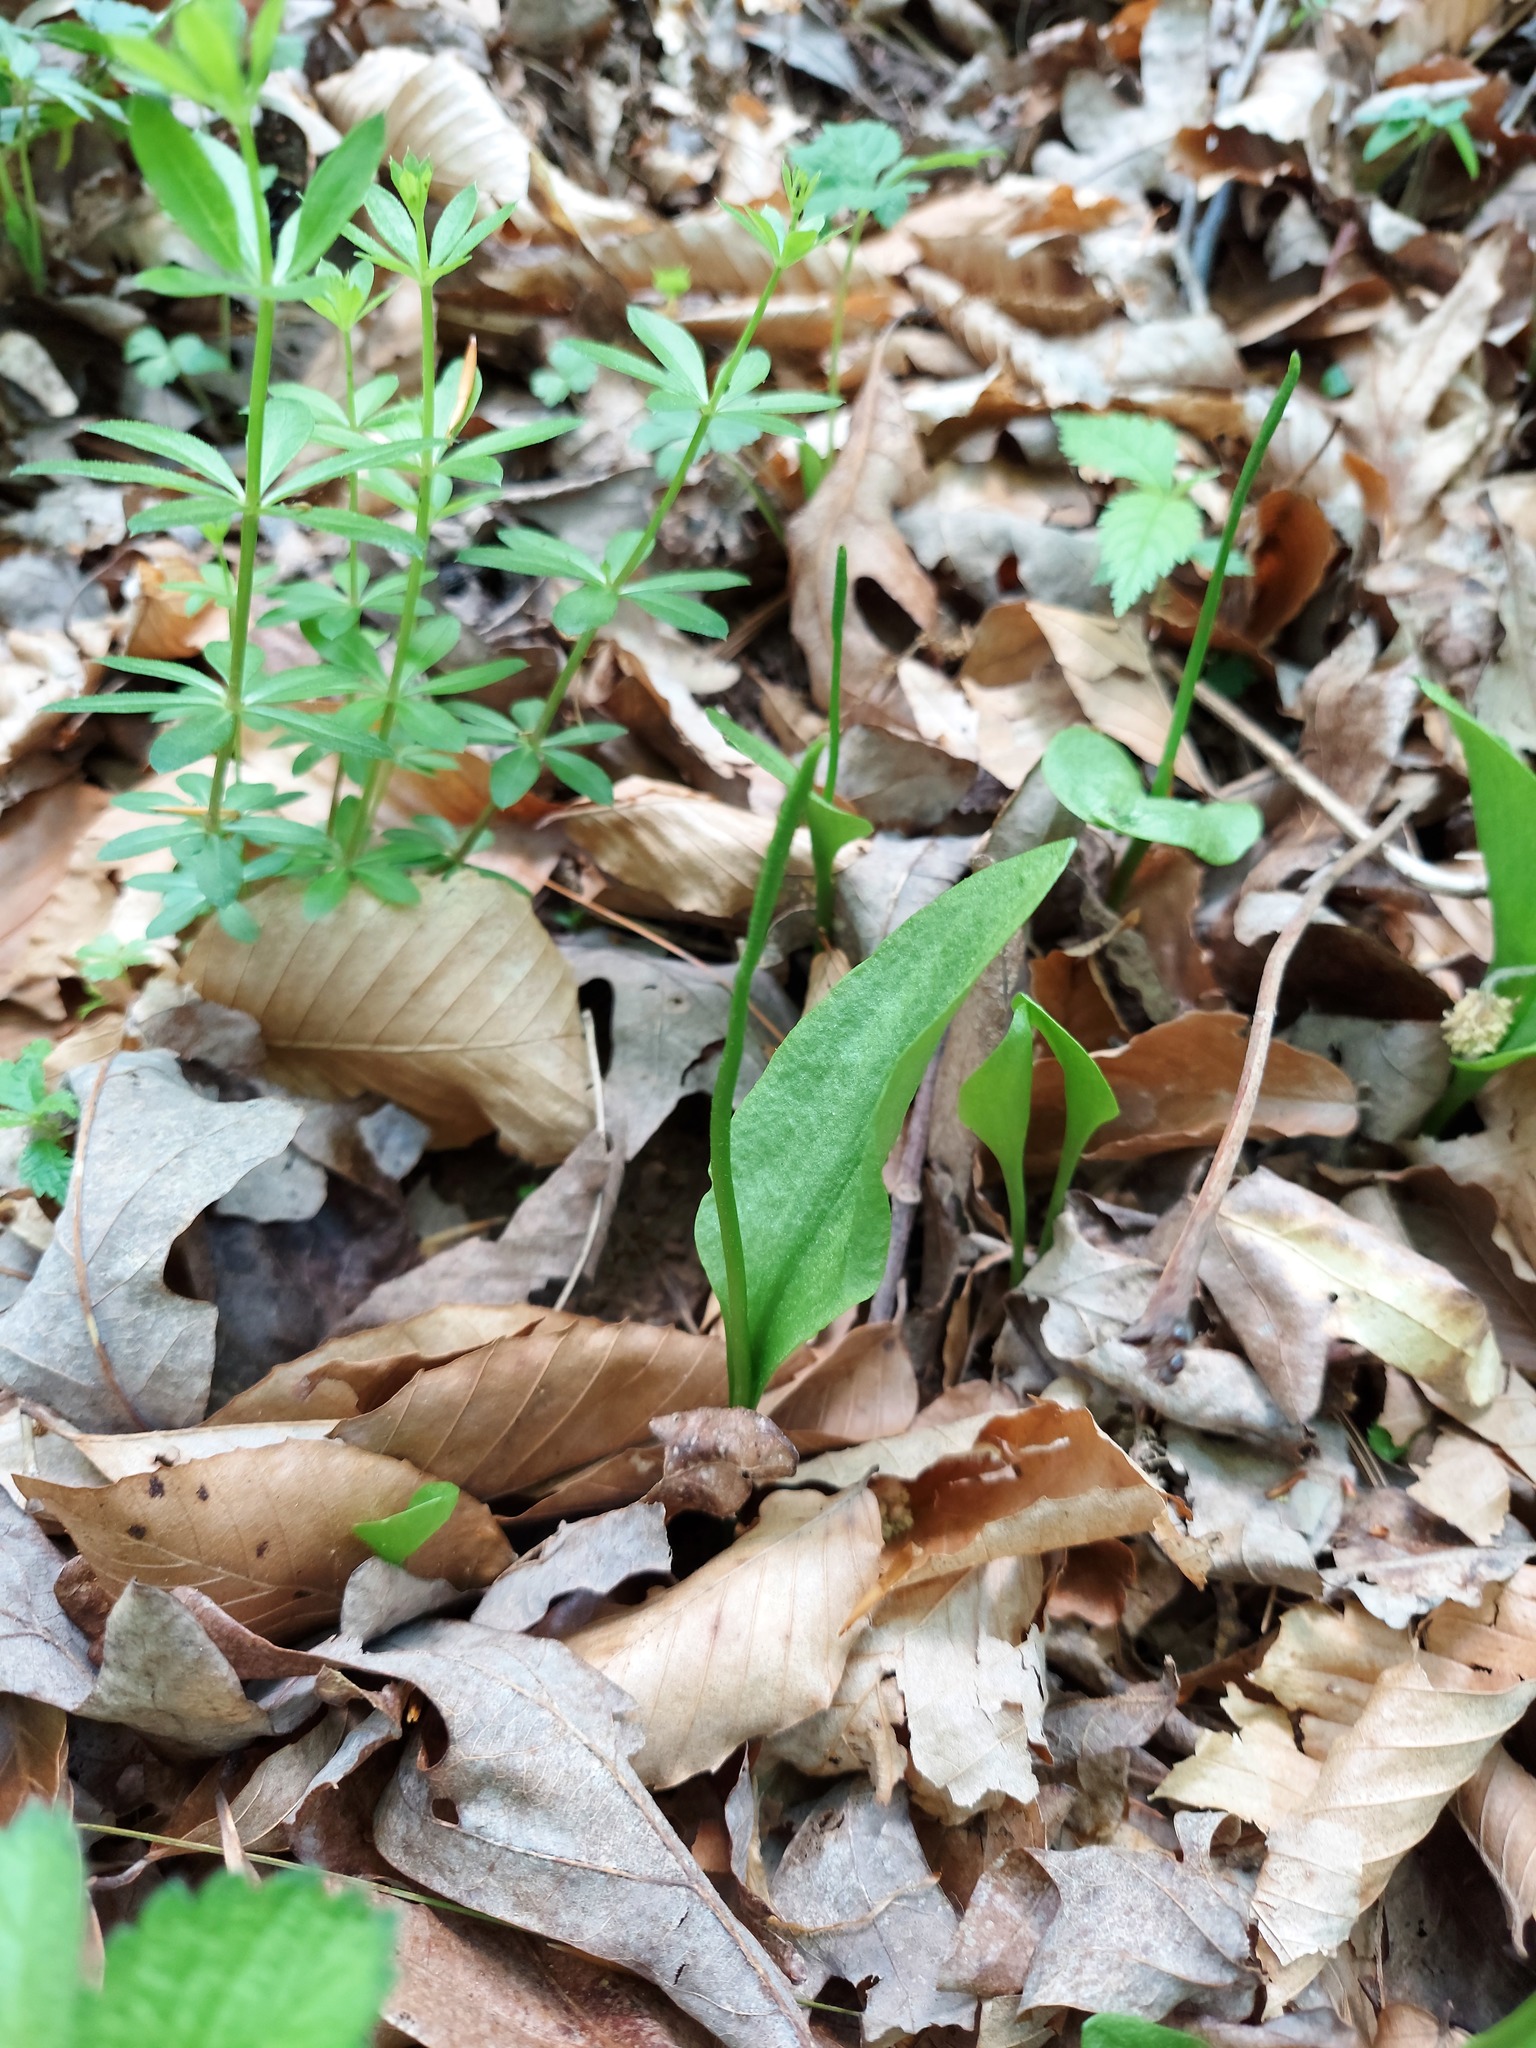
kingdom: Plantae
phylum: Tracheophyta
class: Polypodiopsida
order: Ophioglossales
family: Ophioglossaceae
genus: Ophioglossum
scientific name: Ophioglossum vulgatum
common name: Adder's-tongue
